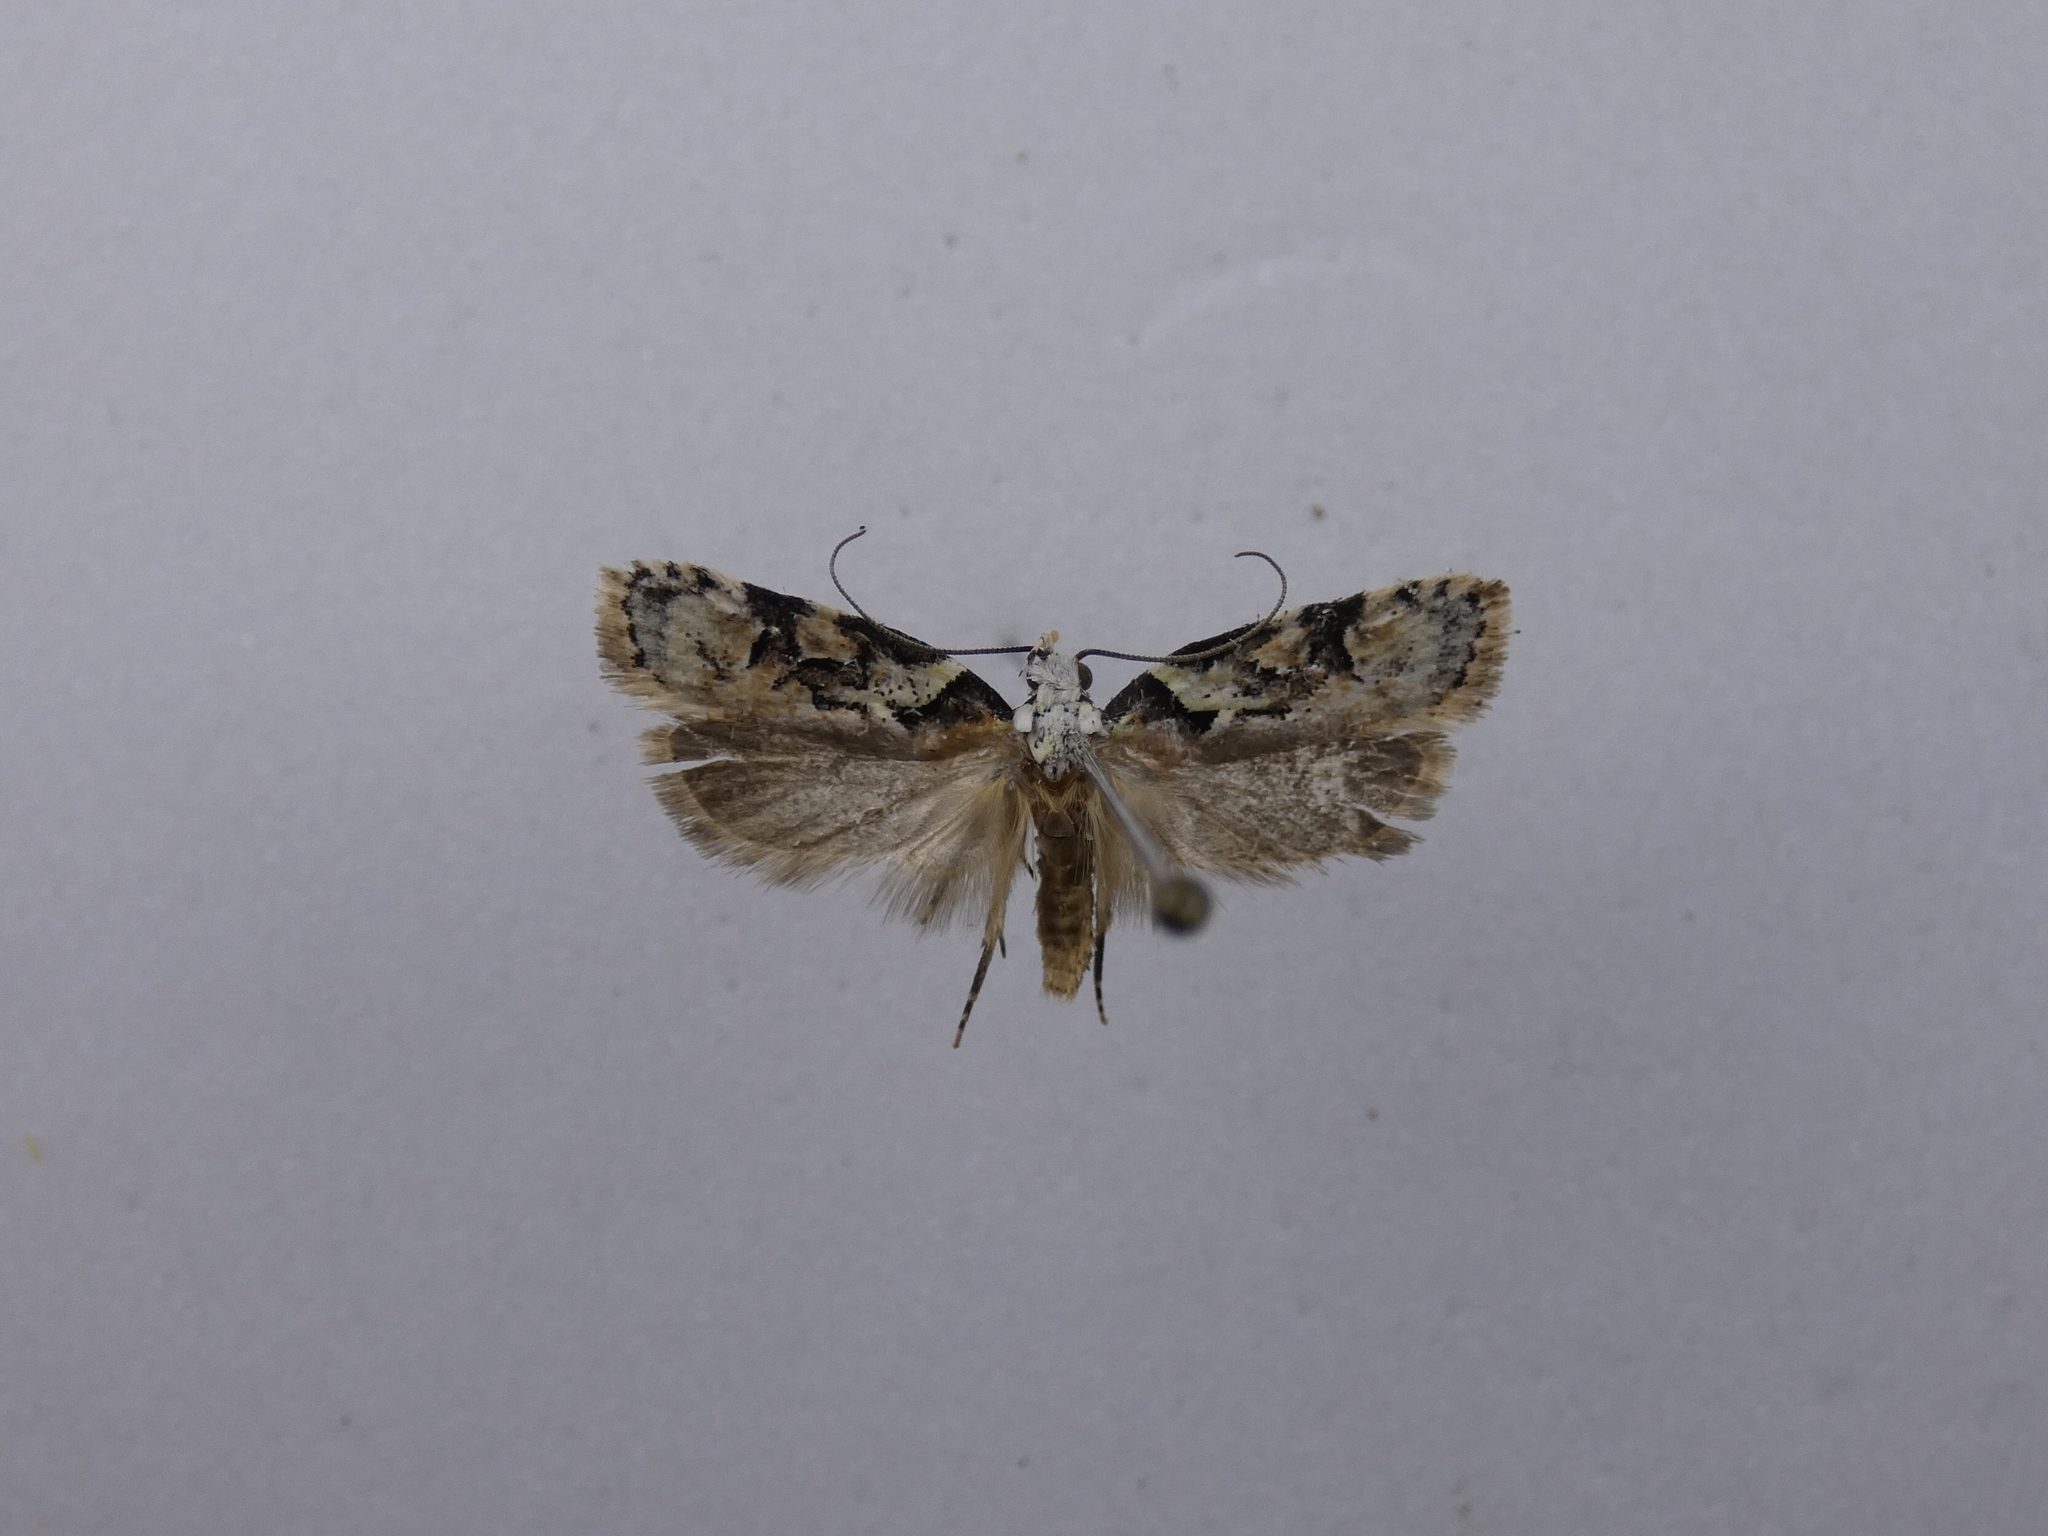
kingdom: Animalia
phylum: Arthropoda
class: Insecta
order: Lepidoptera
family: Oecophoridae
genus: Izatha
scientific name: Izatha epiphanes
